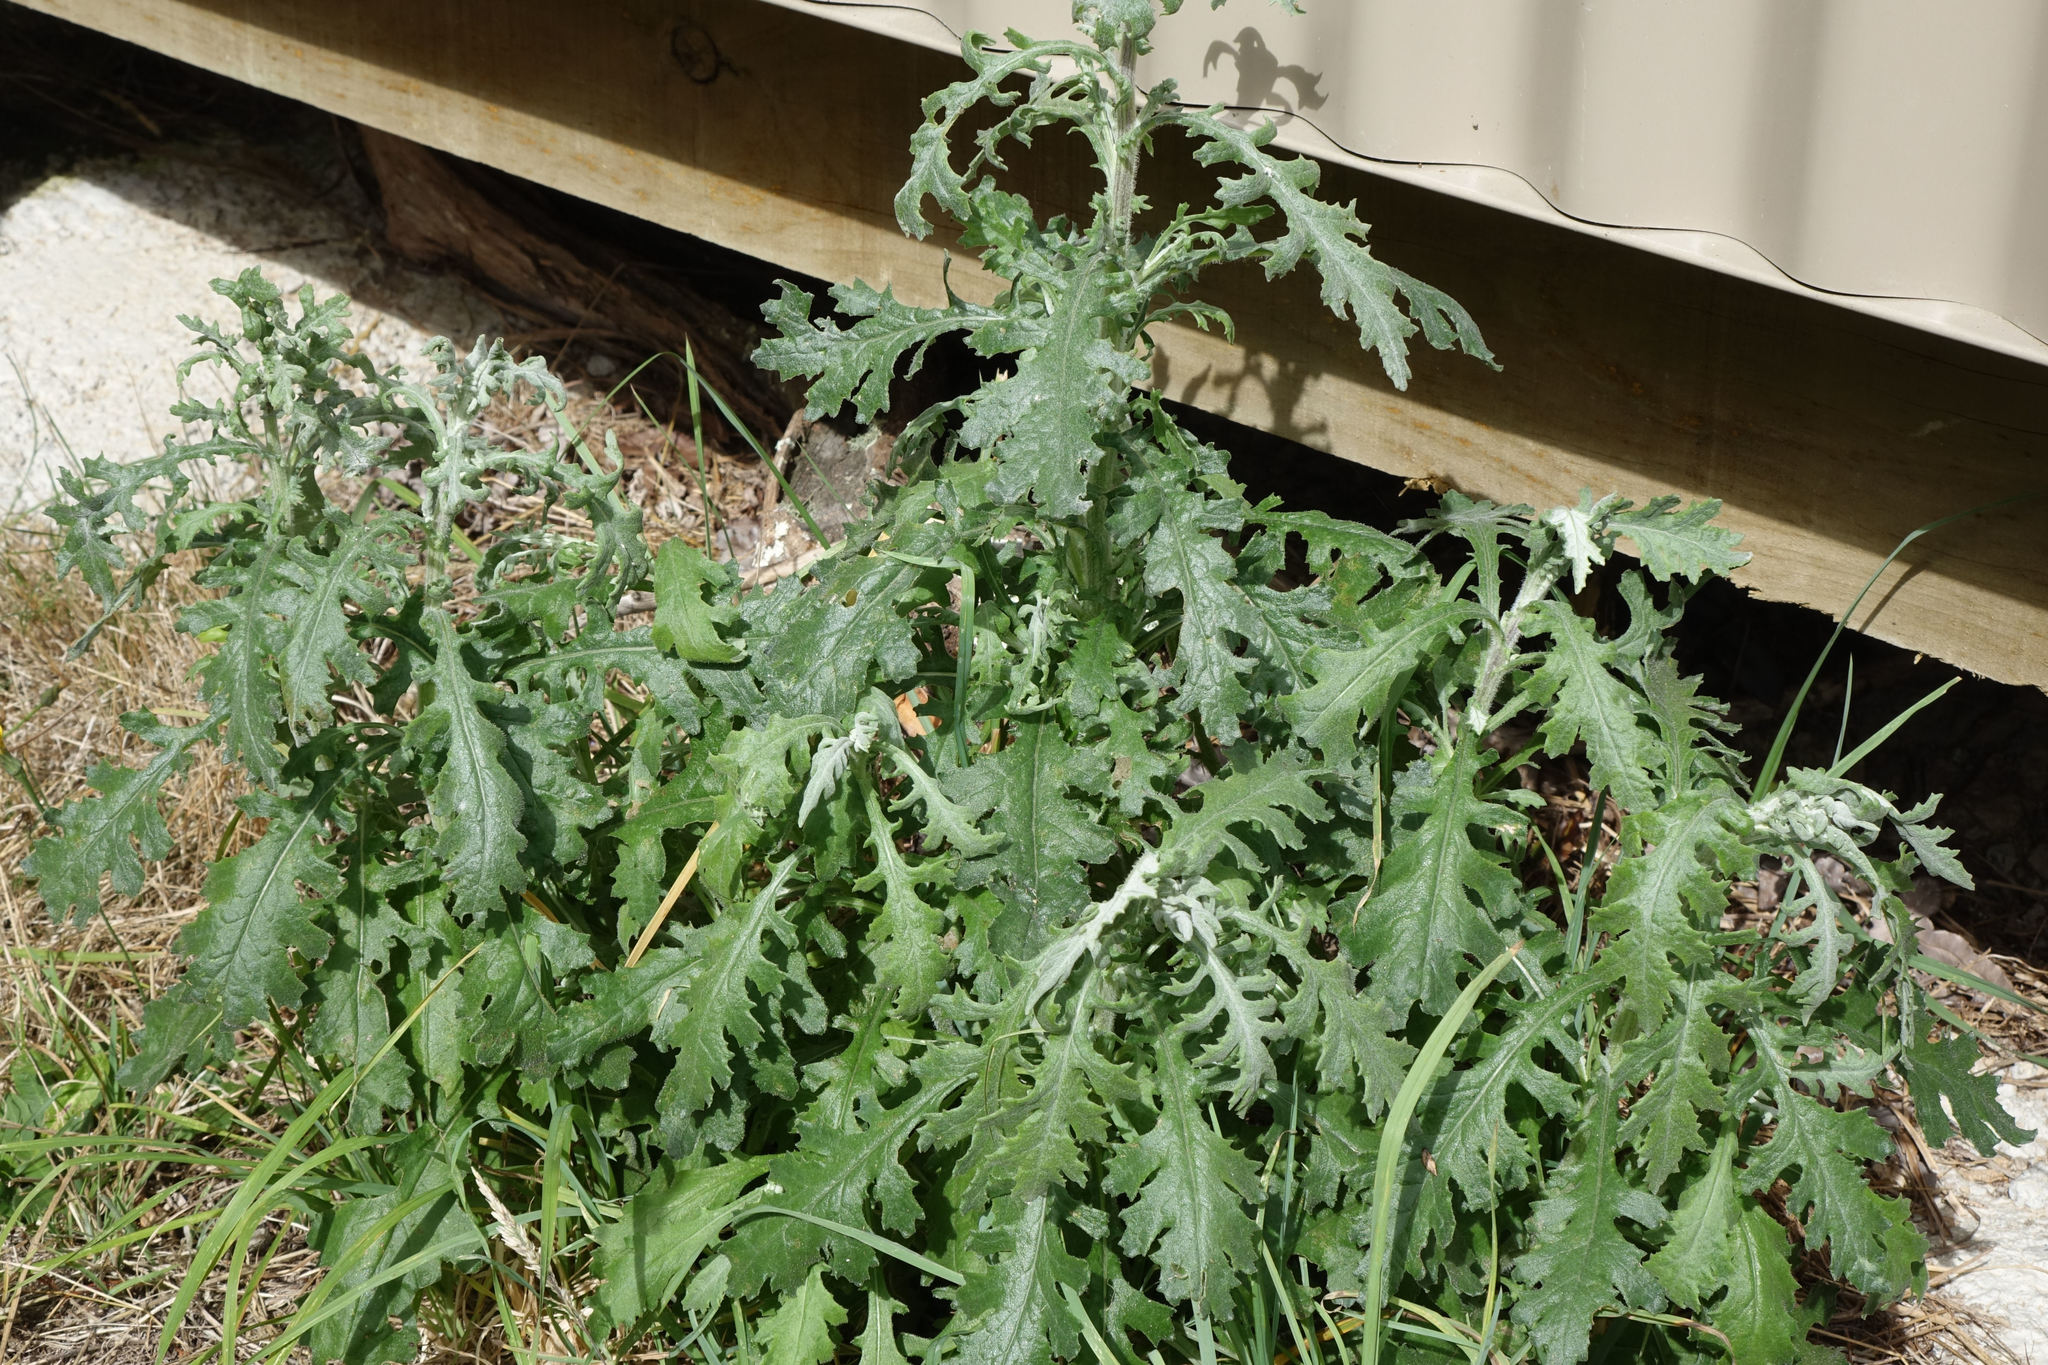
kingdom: Plantae
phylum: Tracheophyta
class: Magnoliopsida
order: Asterales
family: Asteraceae
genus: Senecio
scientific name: Senecio glomeratus
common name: Cutleaf burnweed
